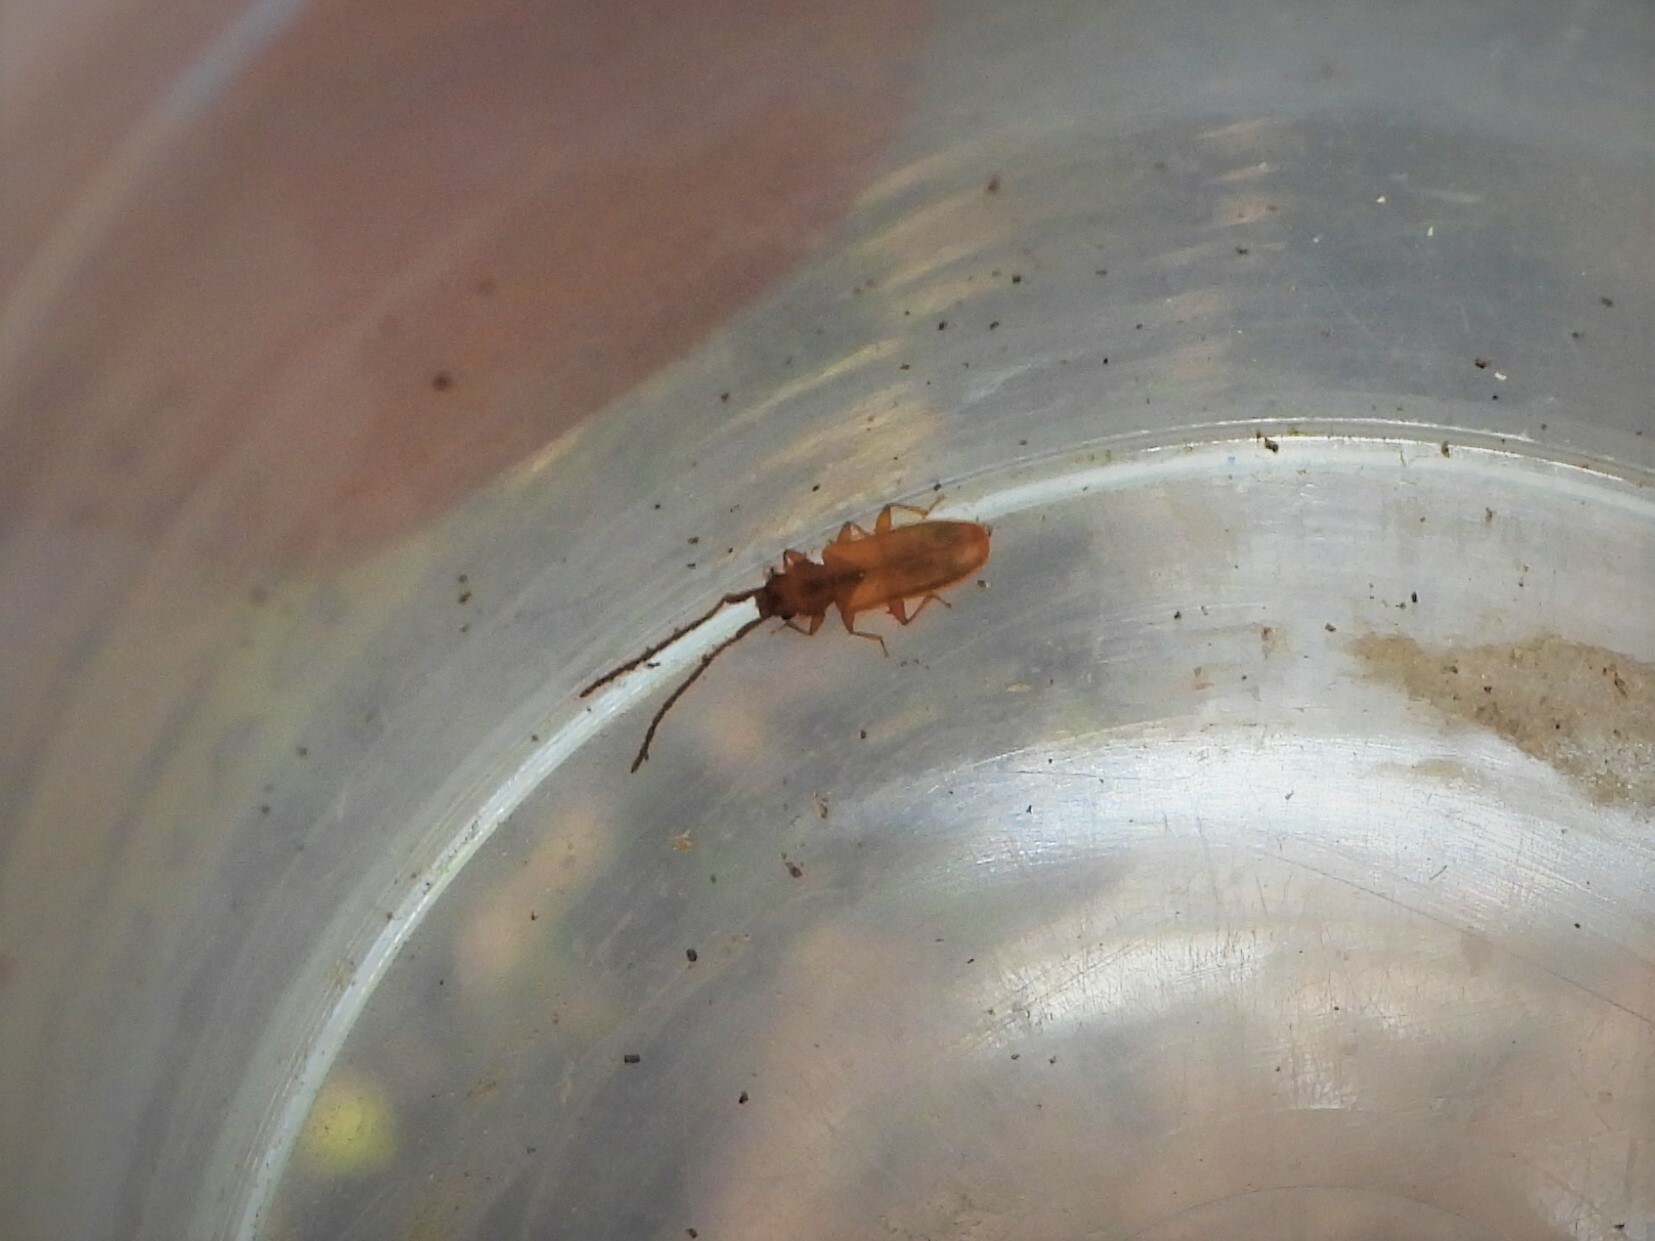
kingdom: Animalia
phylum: Arthropoda
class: Insecta
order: Coleoptera
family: Silvanidae
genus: Uleiota
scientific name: Uleiota planatus
